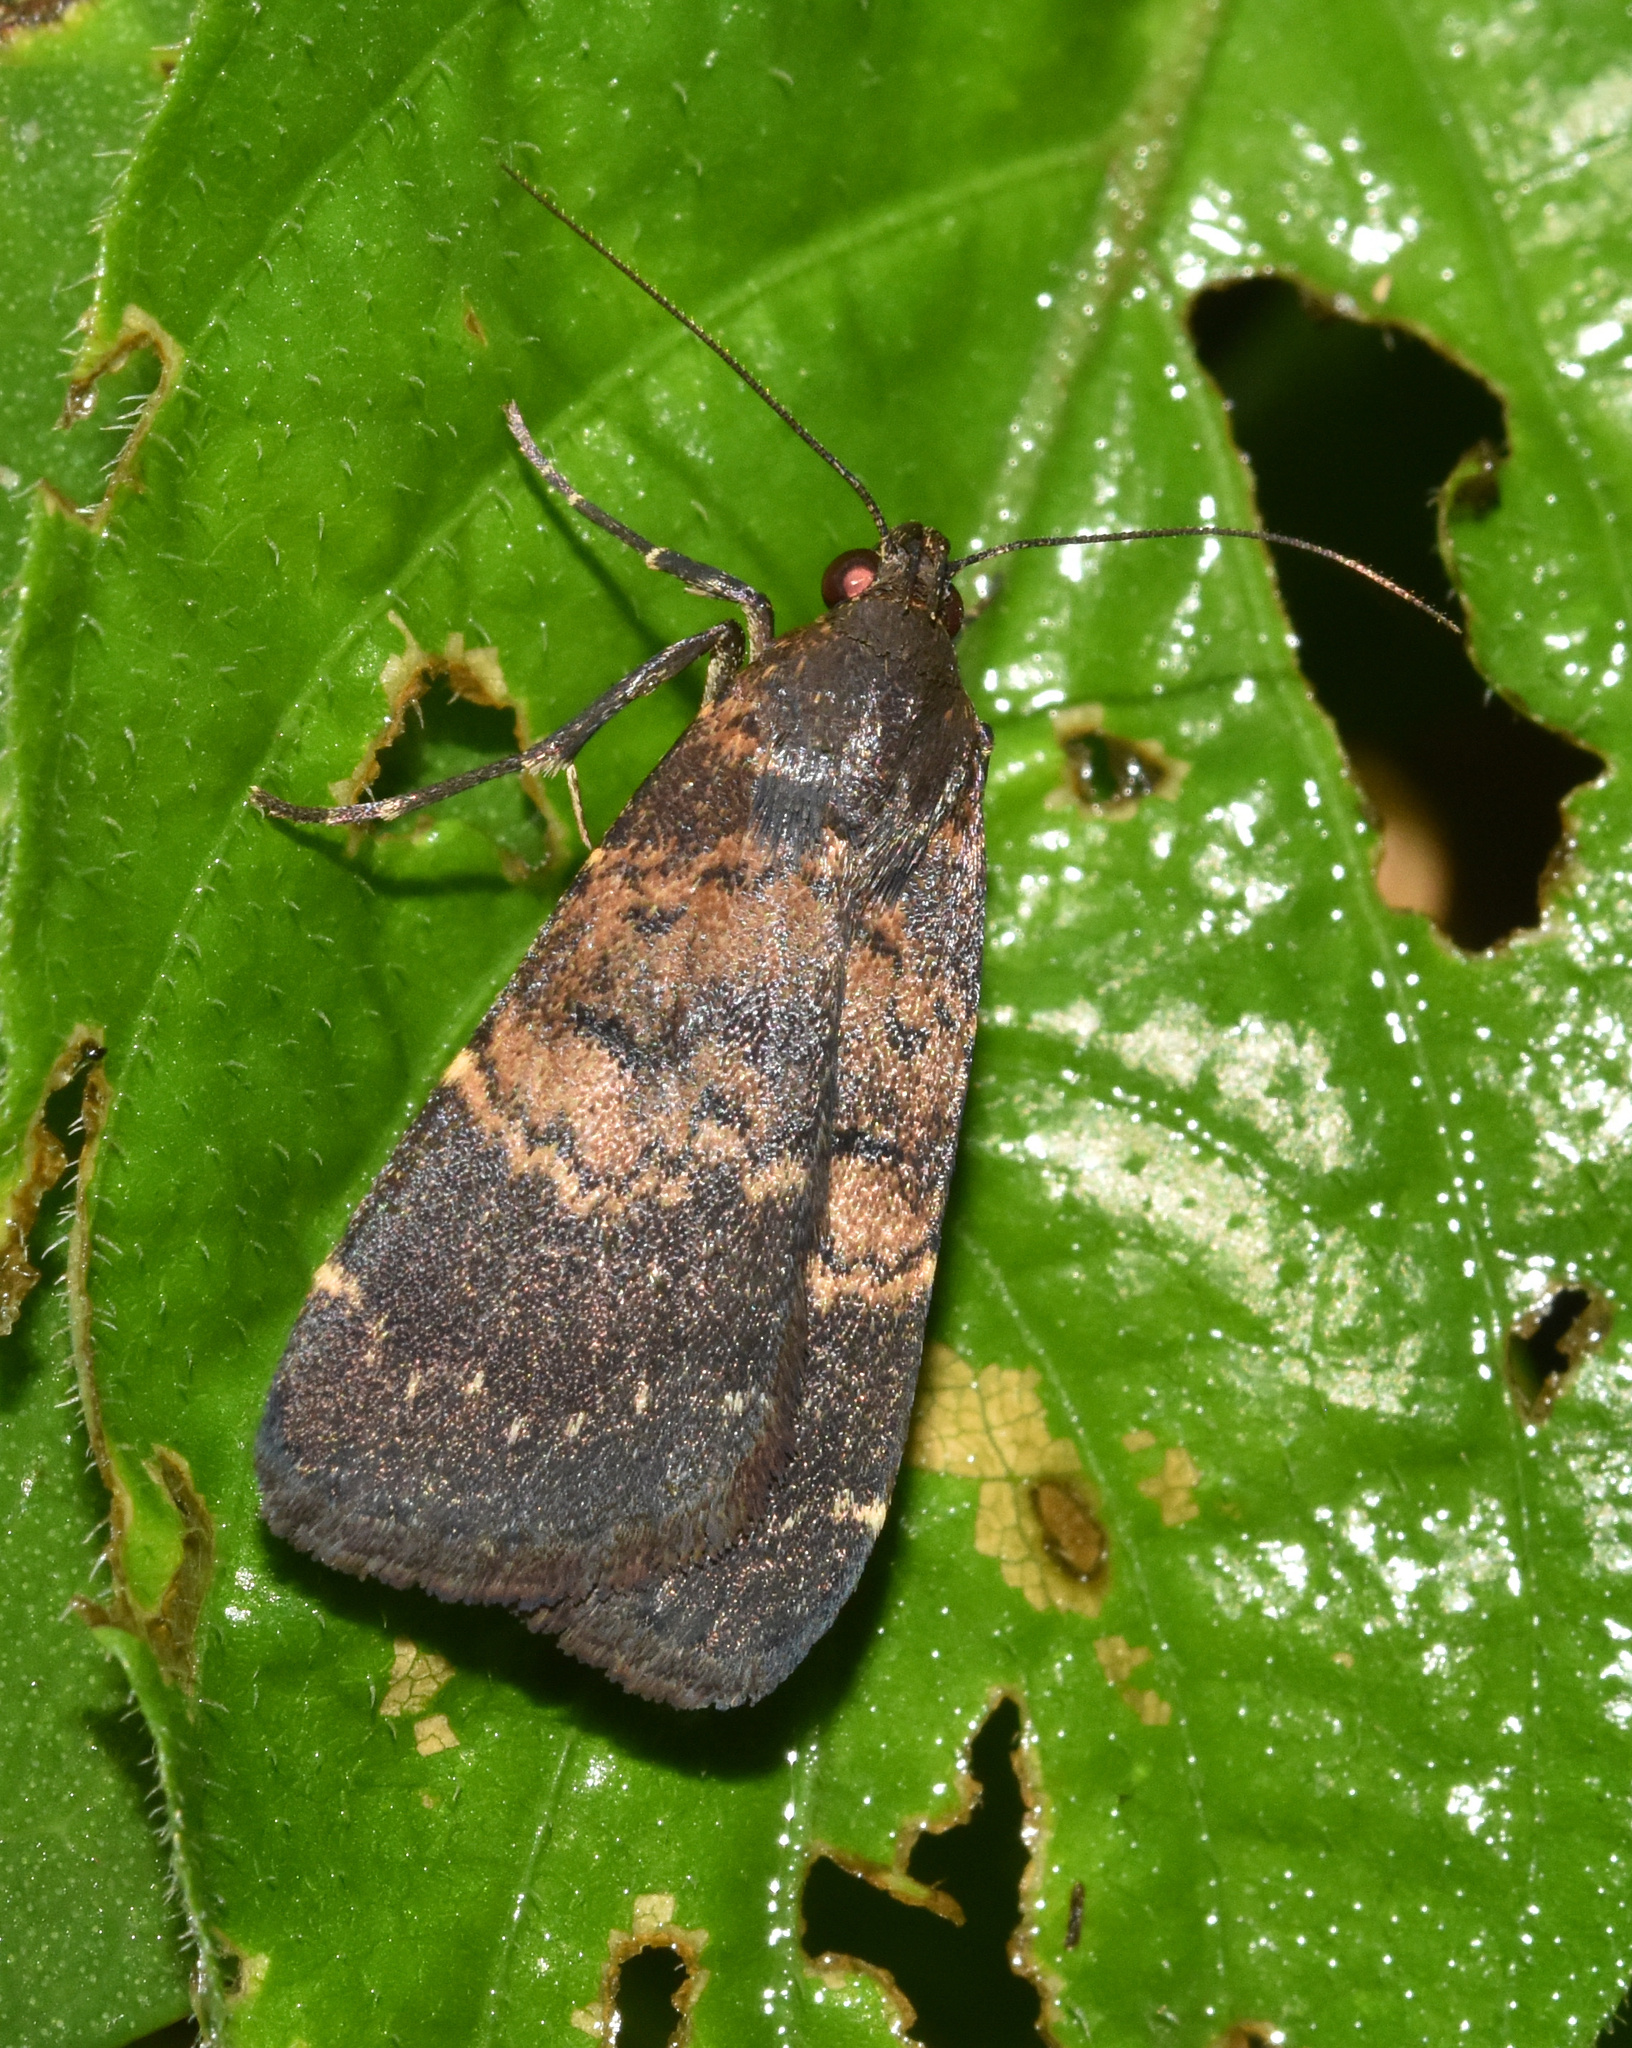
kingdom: Animalia
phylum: Arthropoda
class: Insecta
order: Lepidoptera
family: Erebidae
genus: Hydrillodes
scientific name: Hydrillodes uliginosalis
